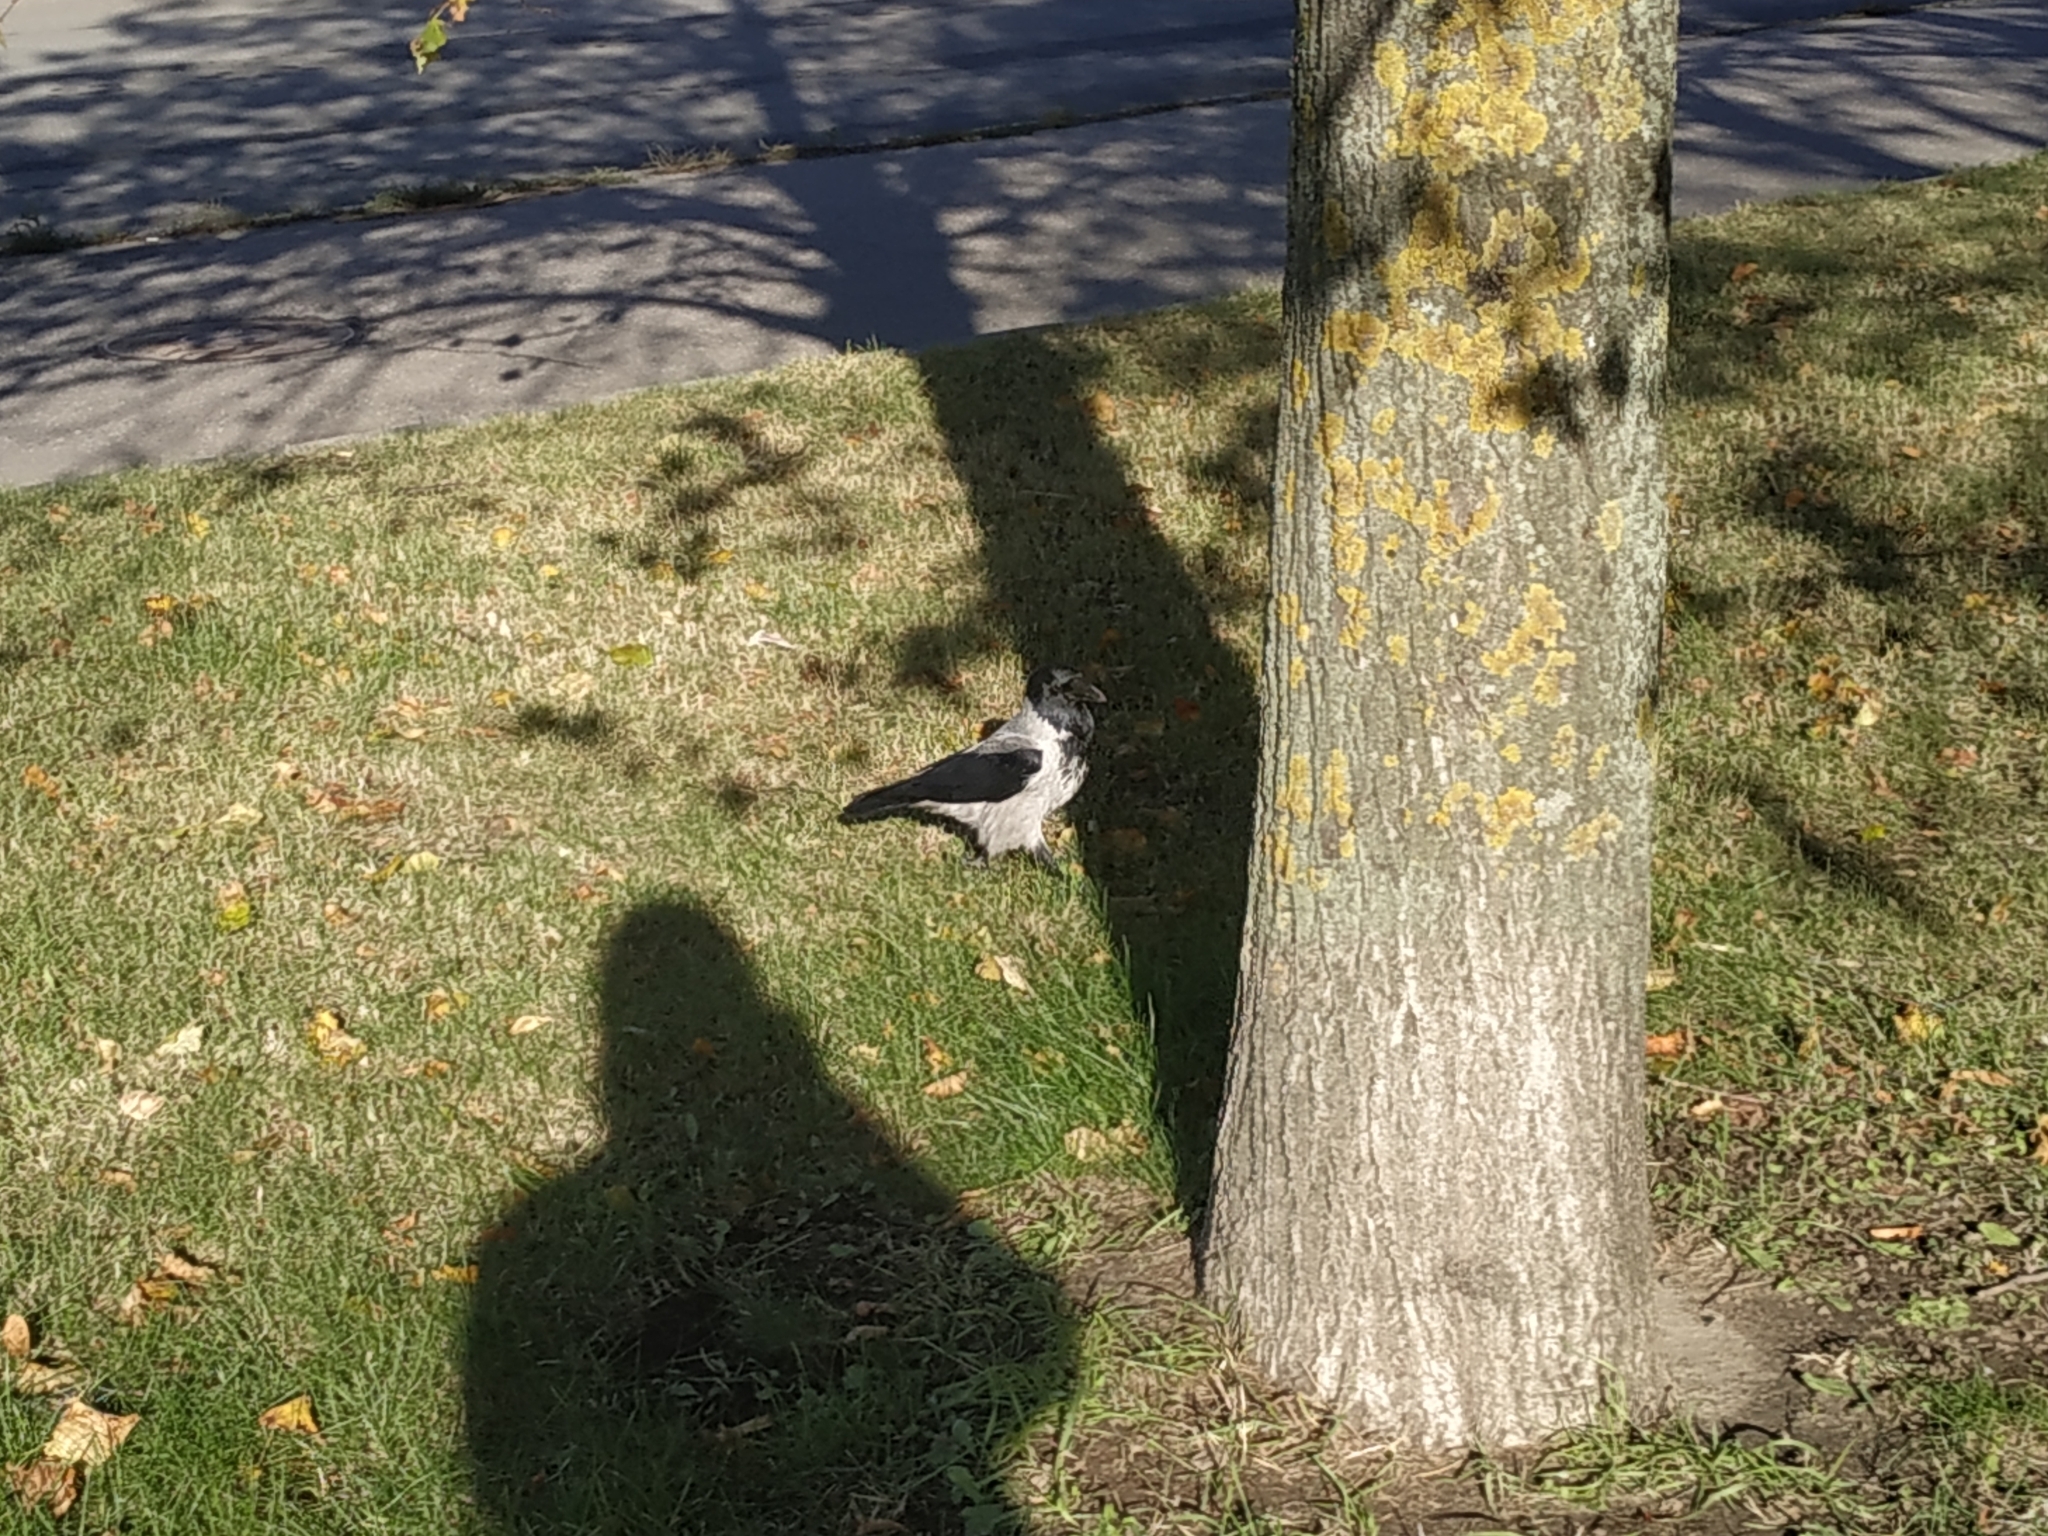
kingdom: Animalia
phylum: Chordata
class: Aves
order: Passeriformes
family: Corvidae
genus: Corvus
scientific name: Corvus cornix
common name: Hooded crow
